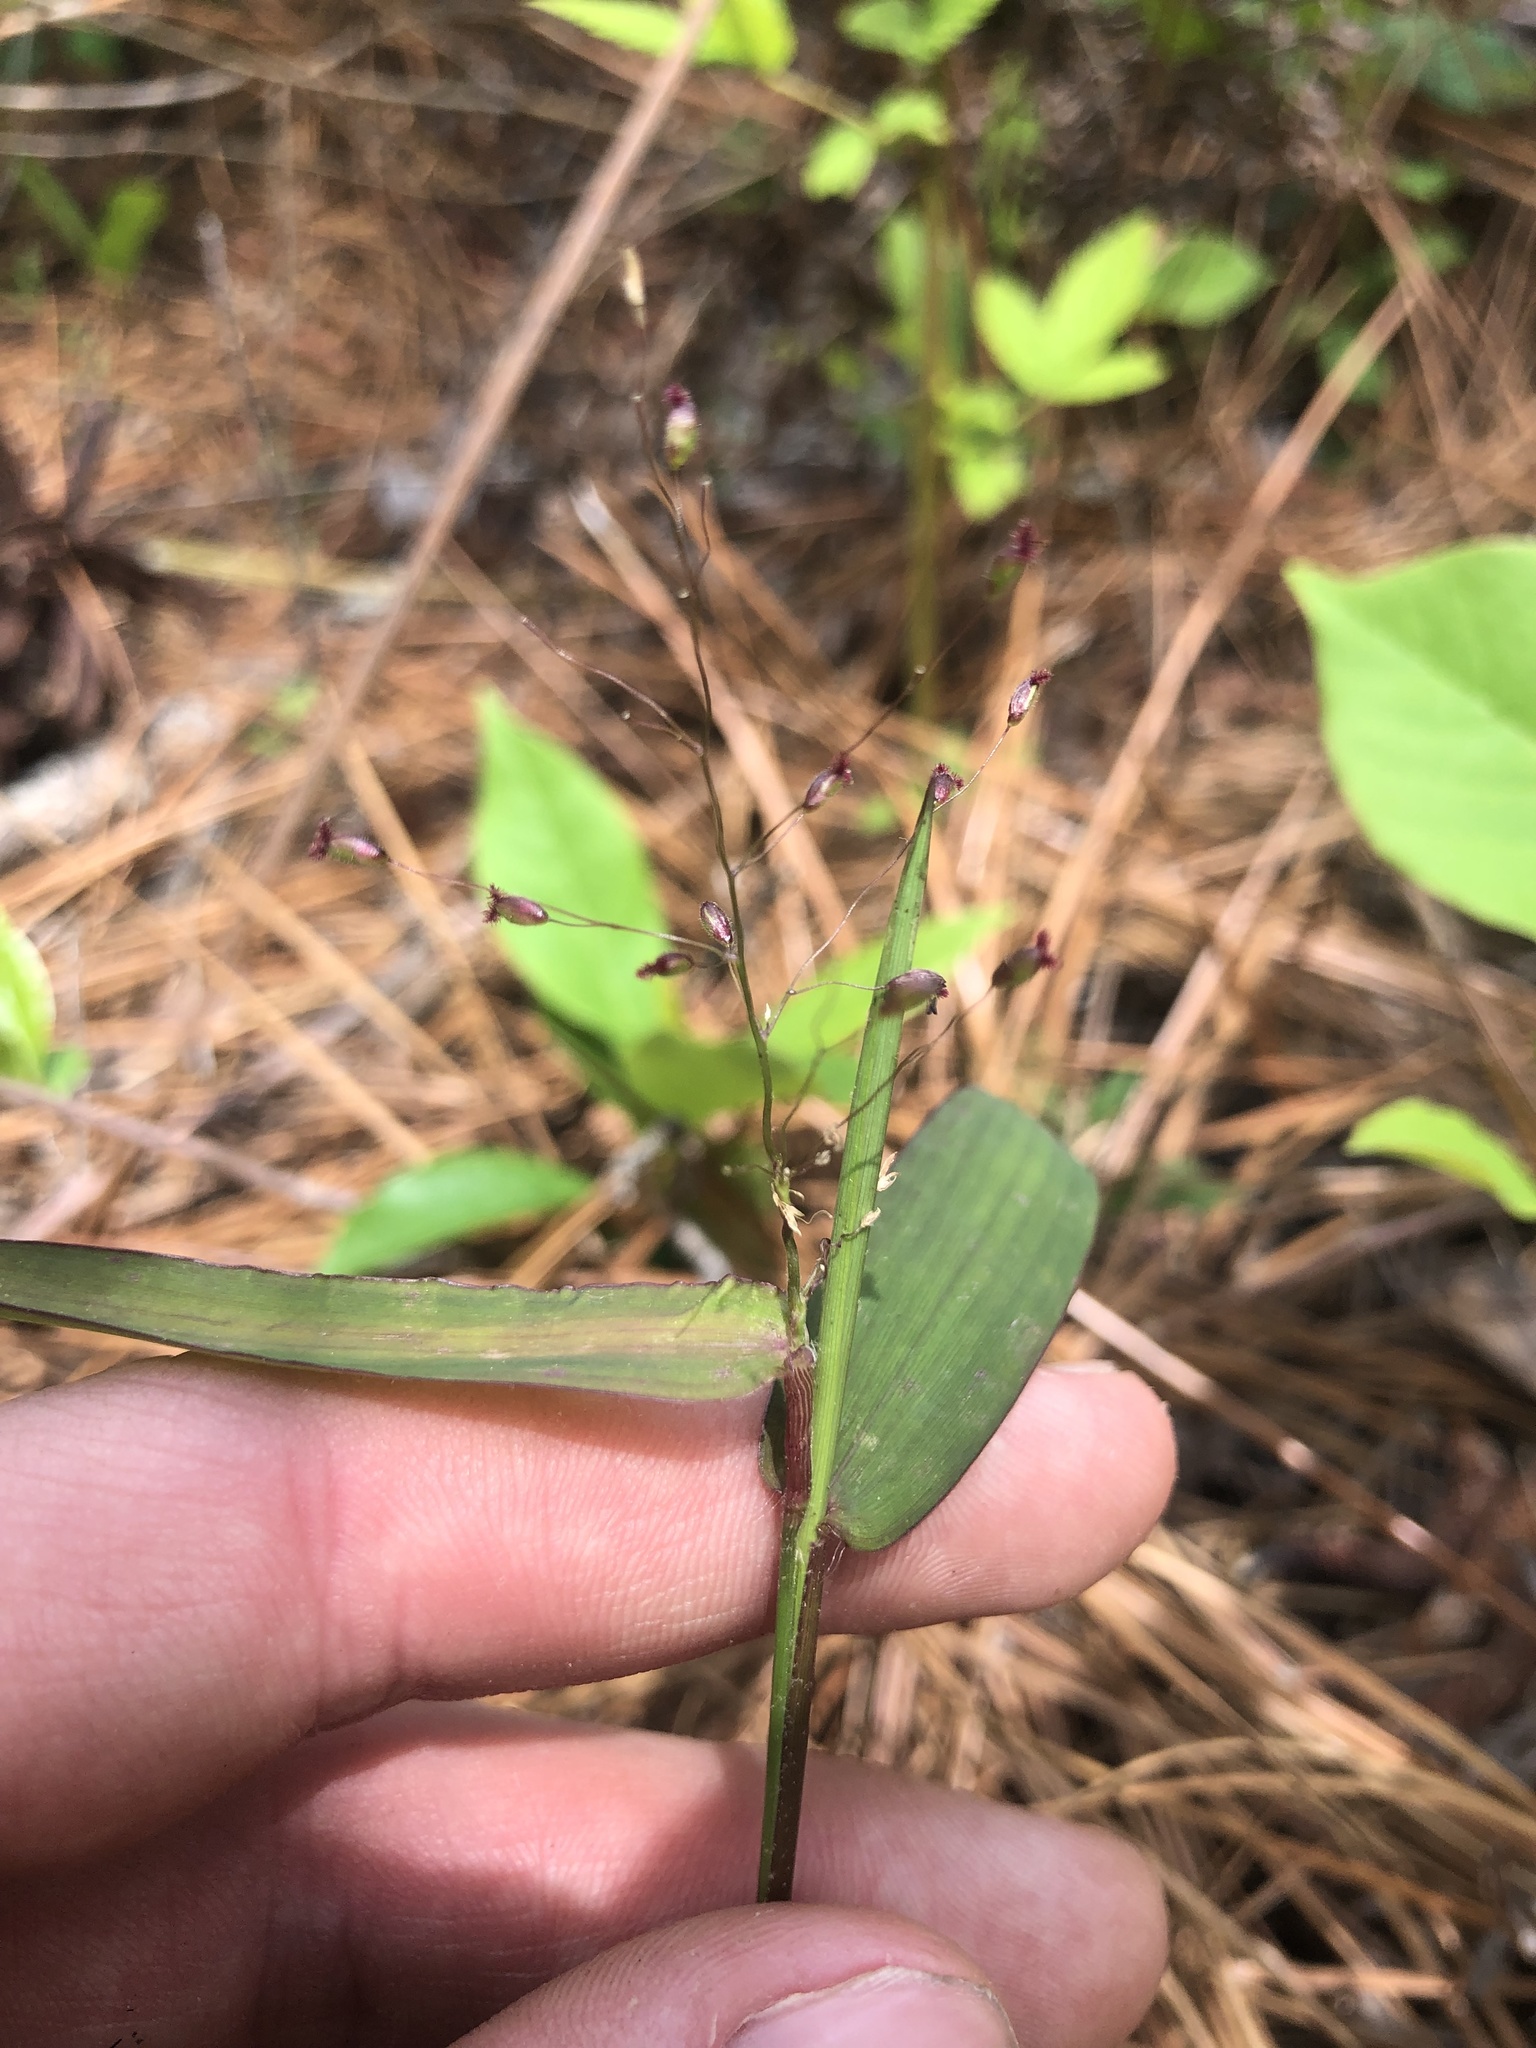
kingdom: Plantae
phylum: Tracheophyta
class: Liliopsida
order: Poales
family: Poaceae
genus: Dichanthelium
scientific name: Dichanthelium commutatum
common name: Variable witchgrass
